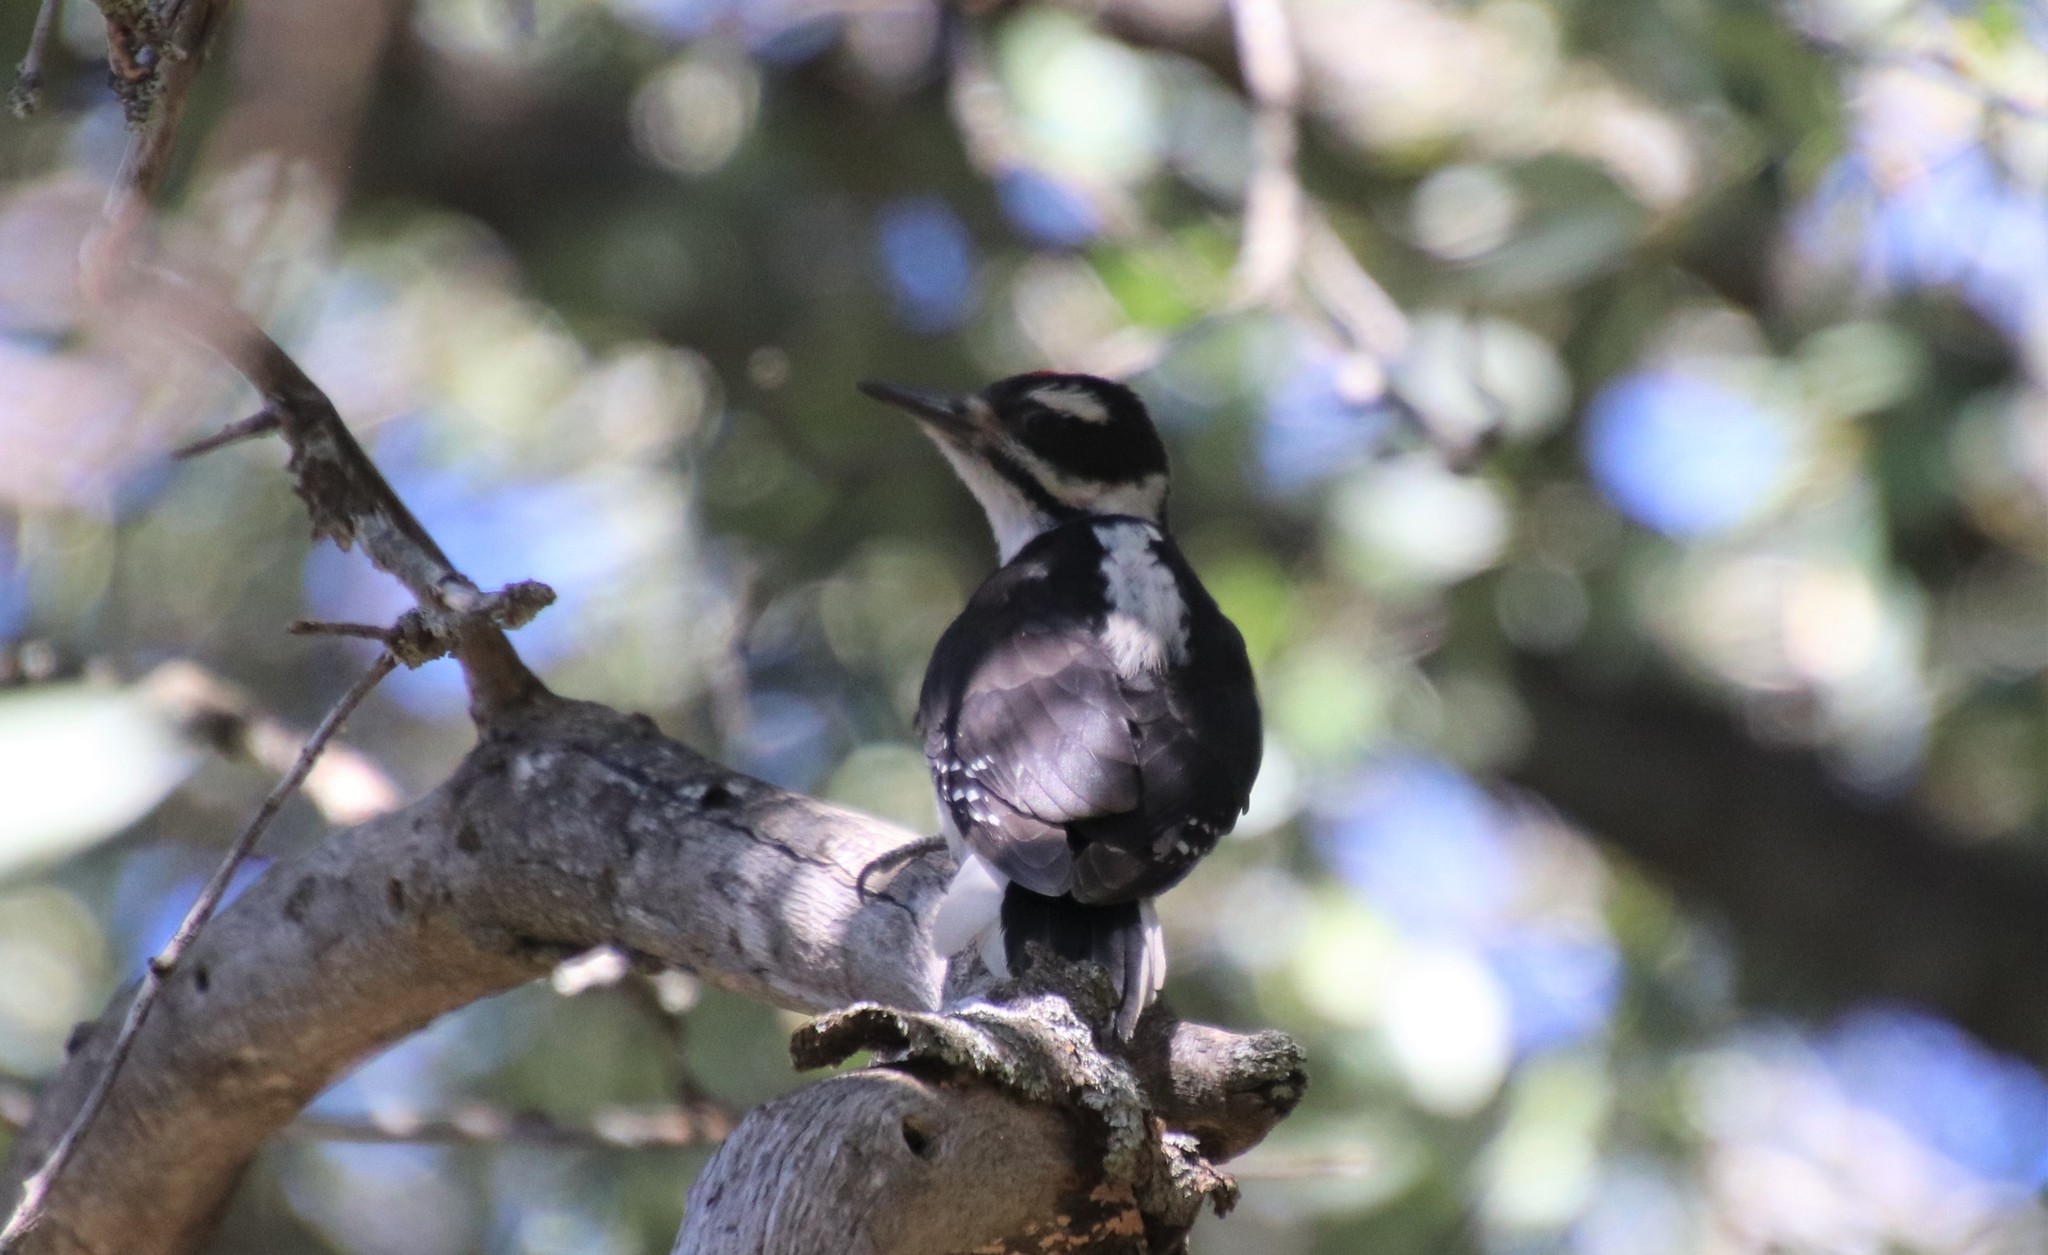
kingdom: Animalia
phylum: Chordata
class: Aves
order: Piciformes
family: Picidae
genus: Leuconotopicus
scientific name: Leuconotopicus villosus
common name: Hairy woodpecker
